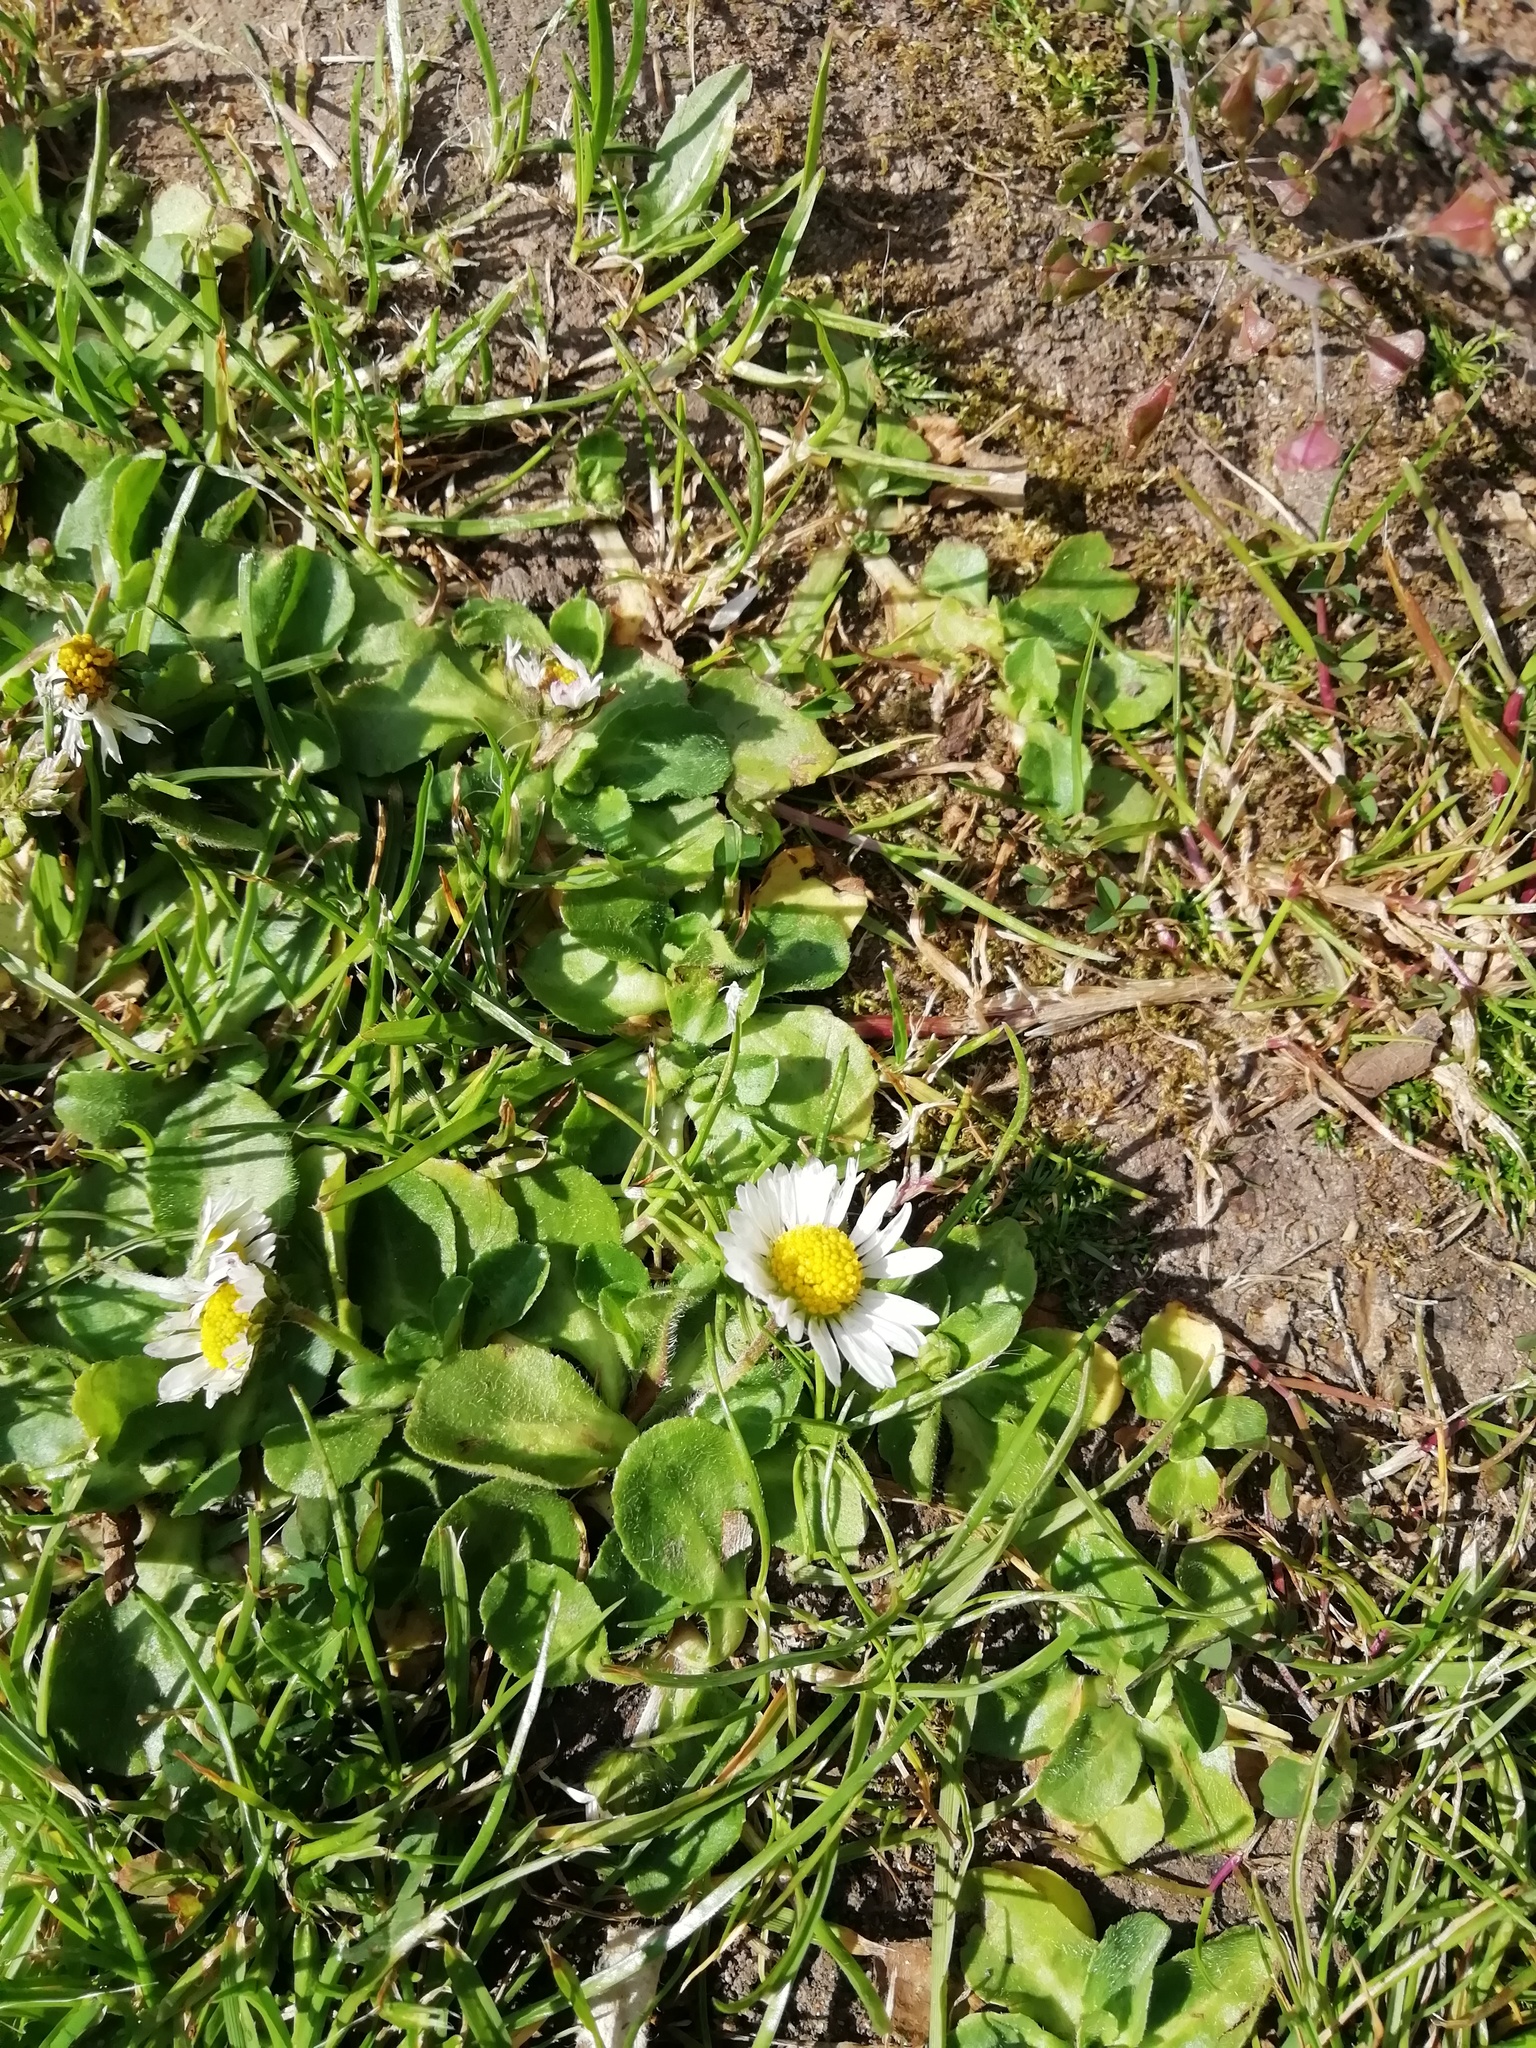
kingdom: Plantae
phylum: Tracheophyta
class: Magnoliopsida
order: Asterales
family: Asteraceae
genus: Bellis
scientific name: Bellis perennis
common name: Lawndaisy
